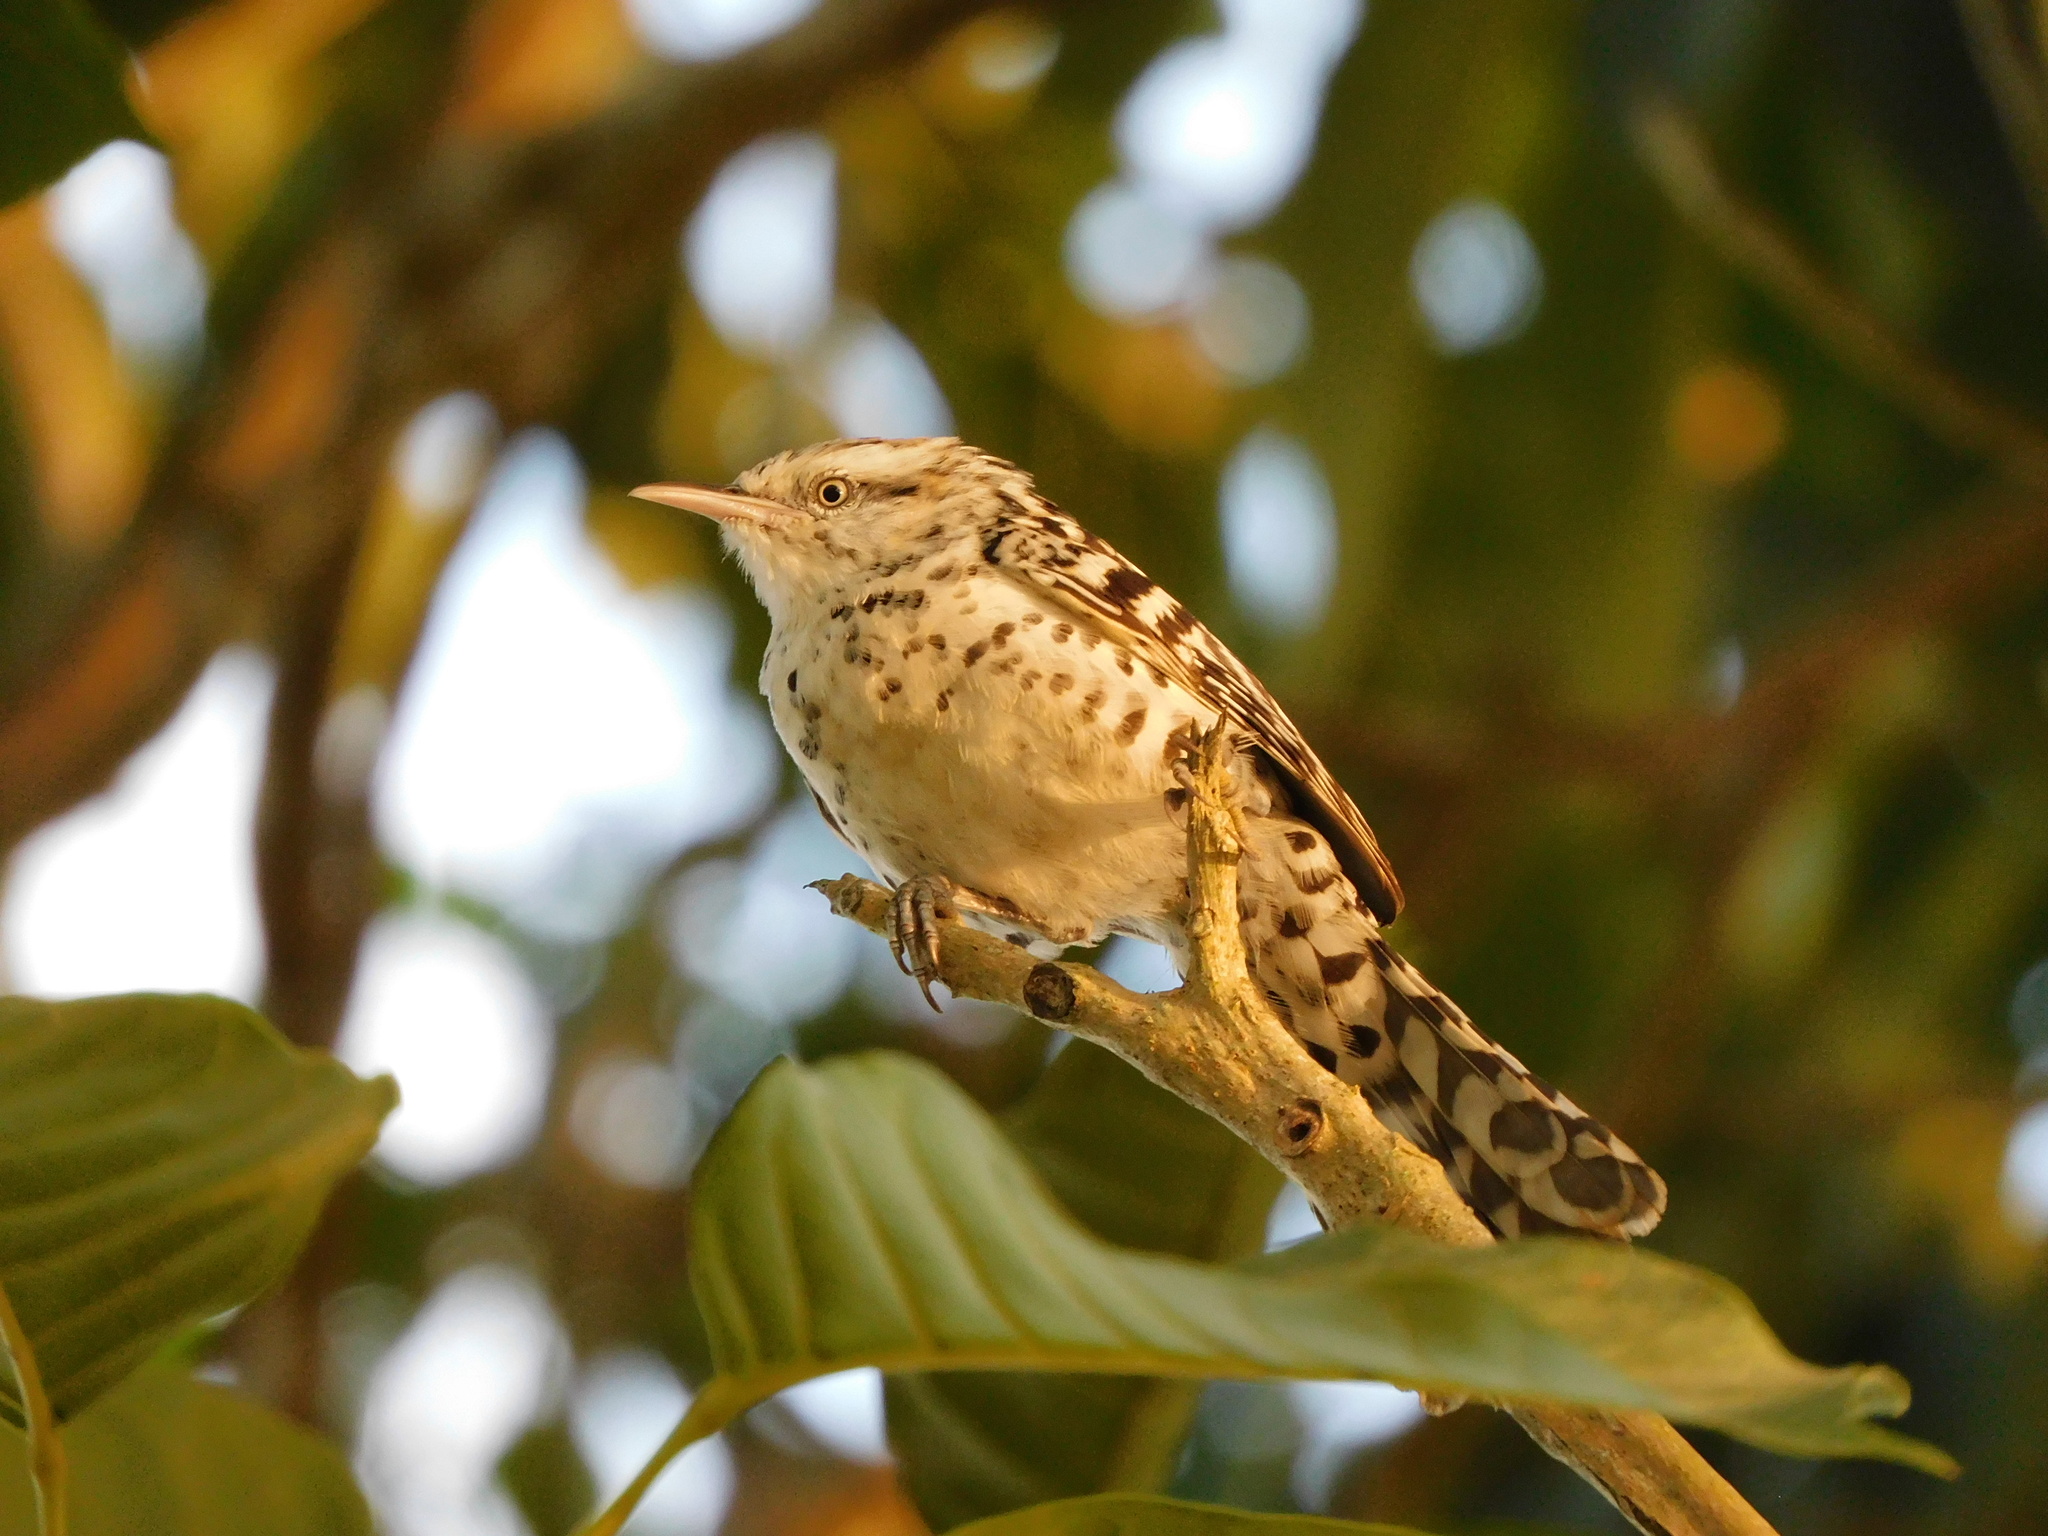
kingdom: Animalia
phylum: Chordata
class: Aves
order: Passeriformes
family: Troglodytidae
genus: Campylorhynchus
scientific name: Campylorhynchus nuchalis
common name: Stripe-backed wren
